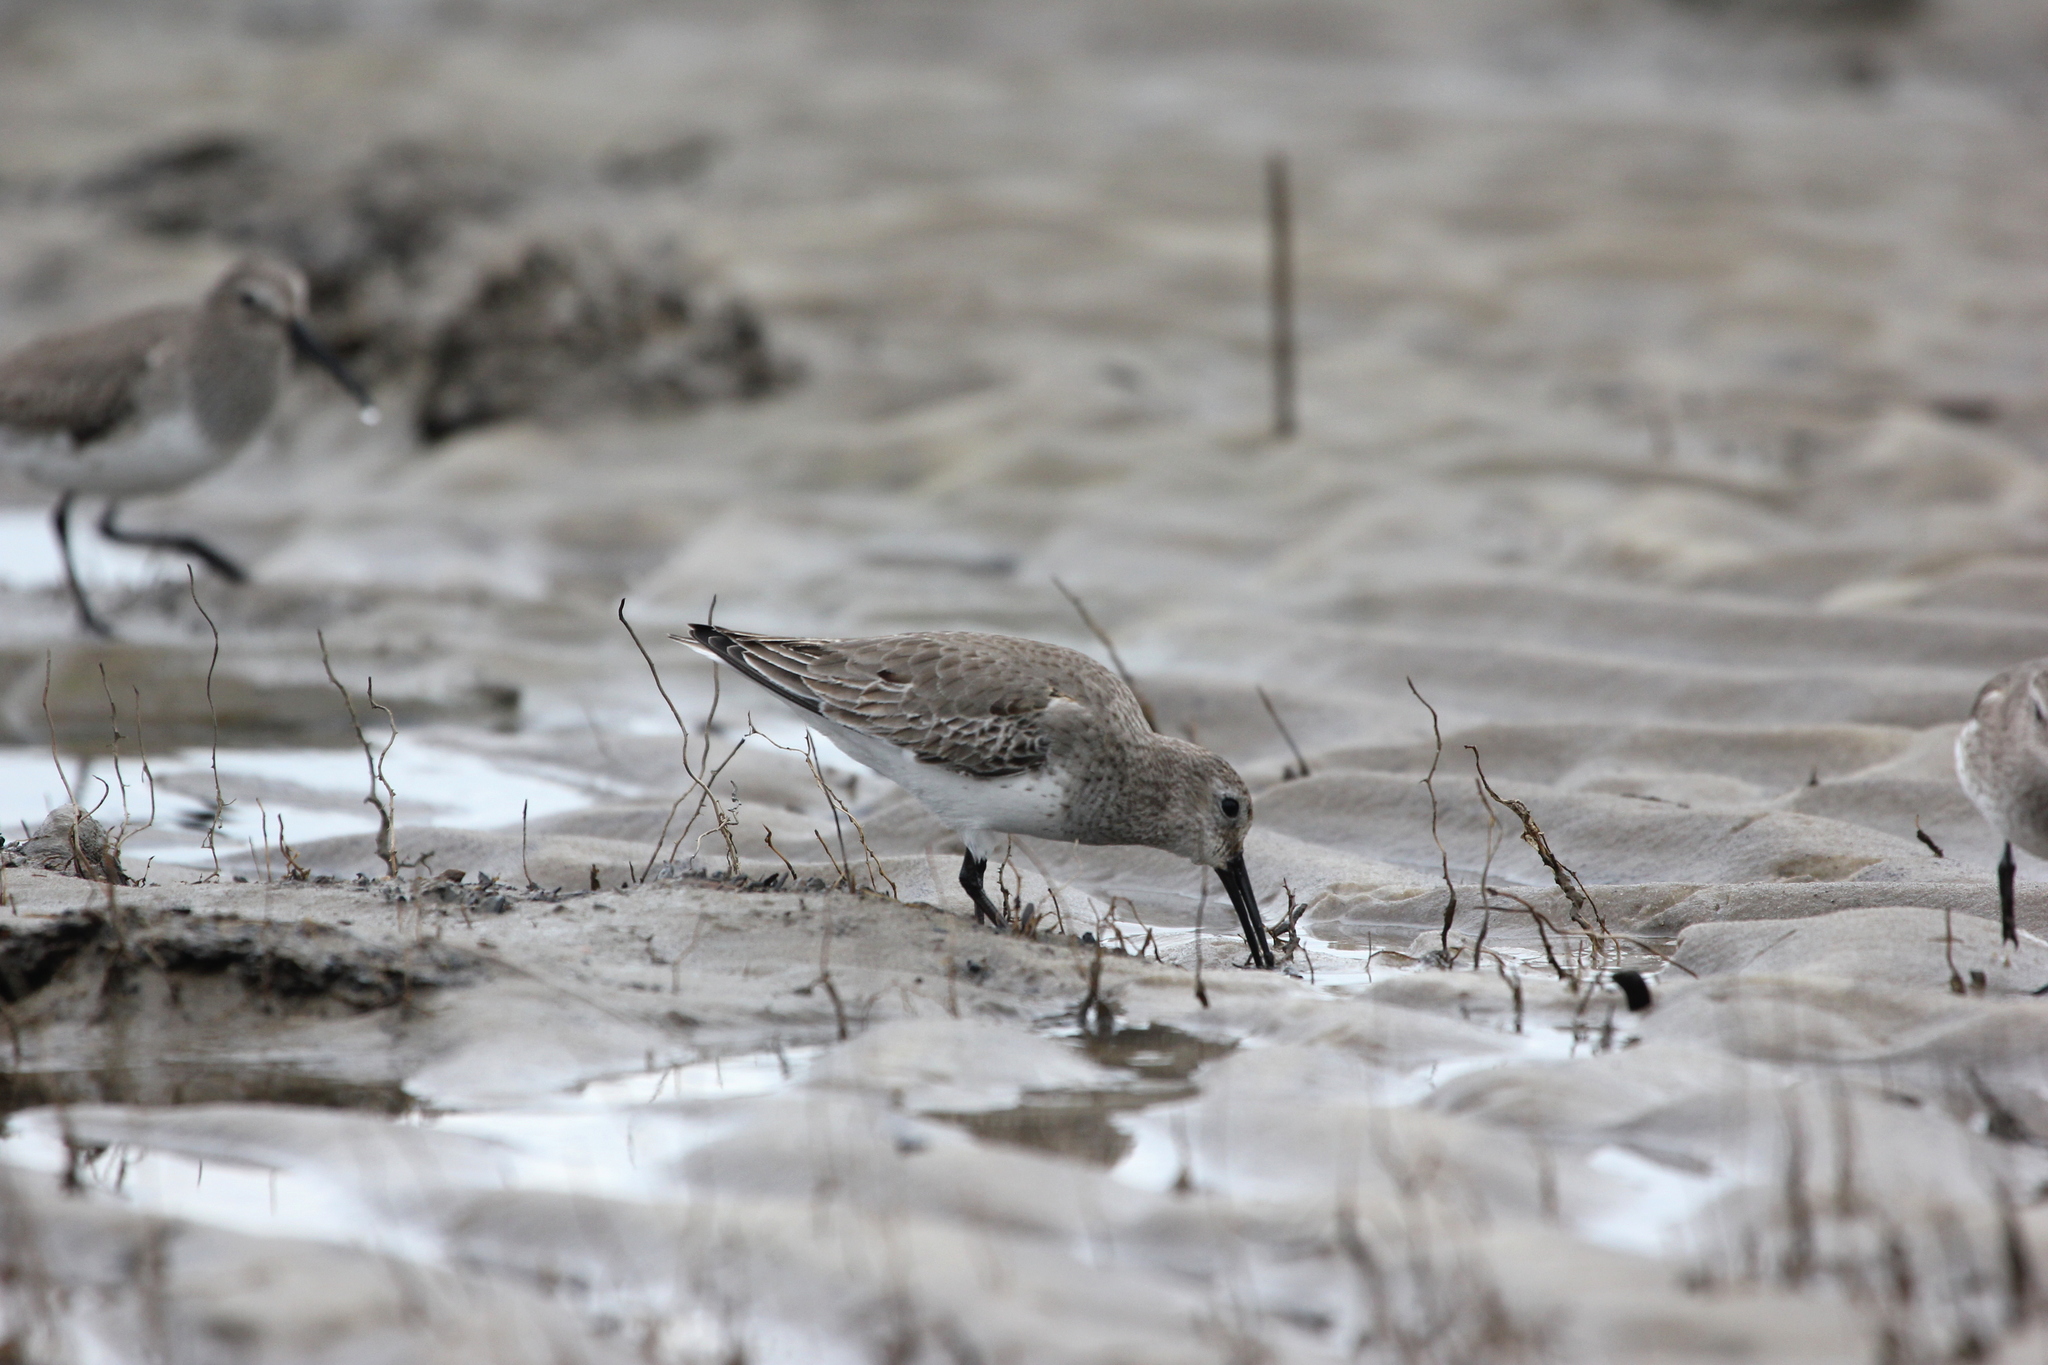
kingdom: Animalia
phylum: Chordata
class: Aves
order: Charadriiformes
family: Scolopacidae
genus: Calidris
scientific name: Calidris alpina
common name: Dunlin
